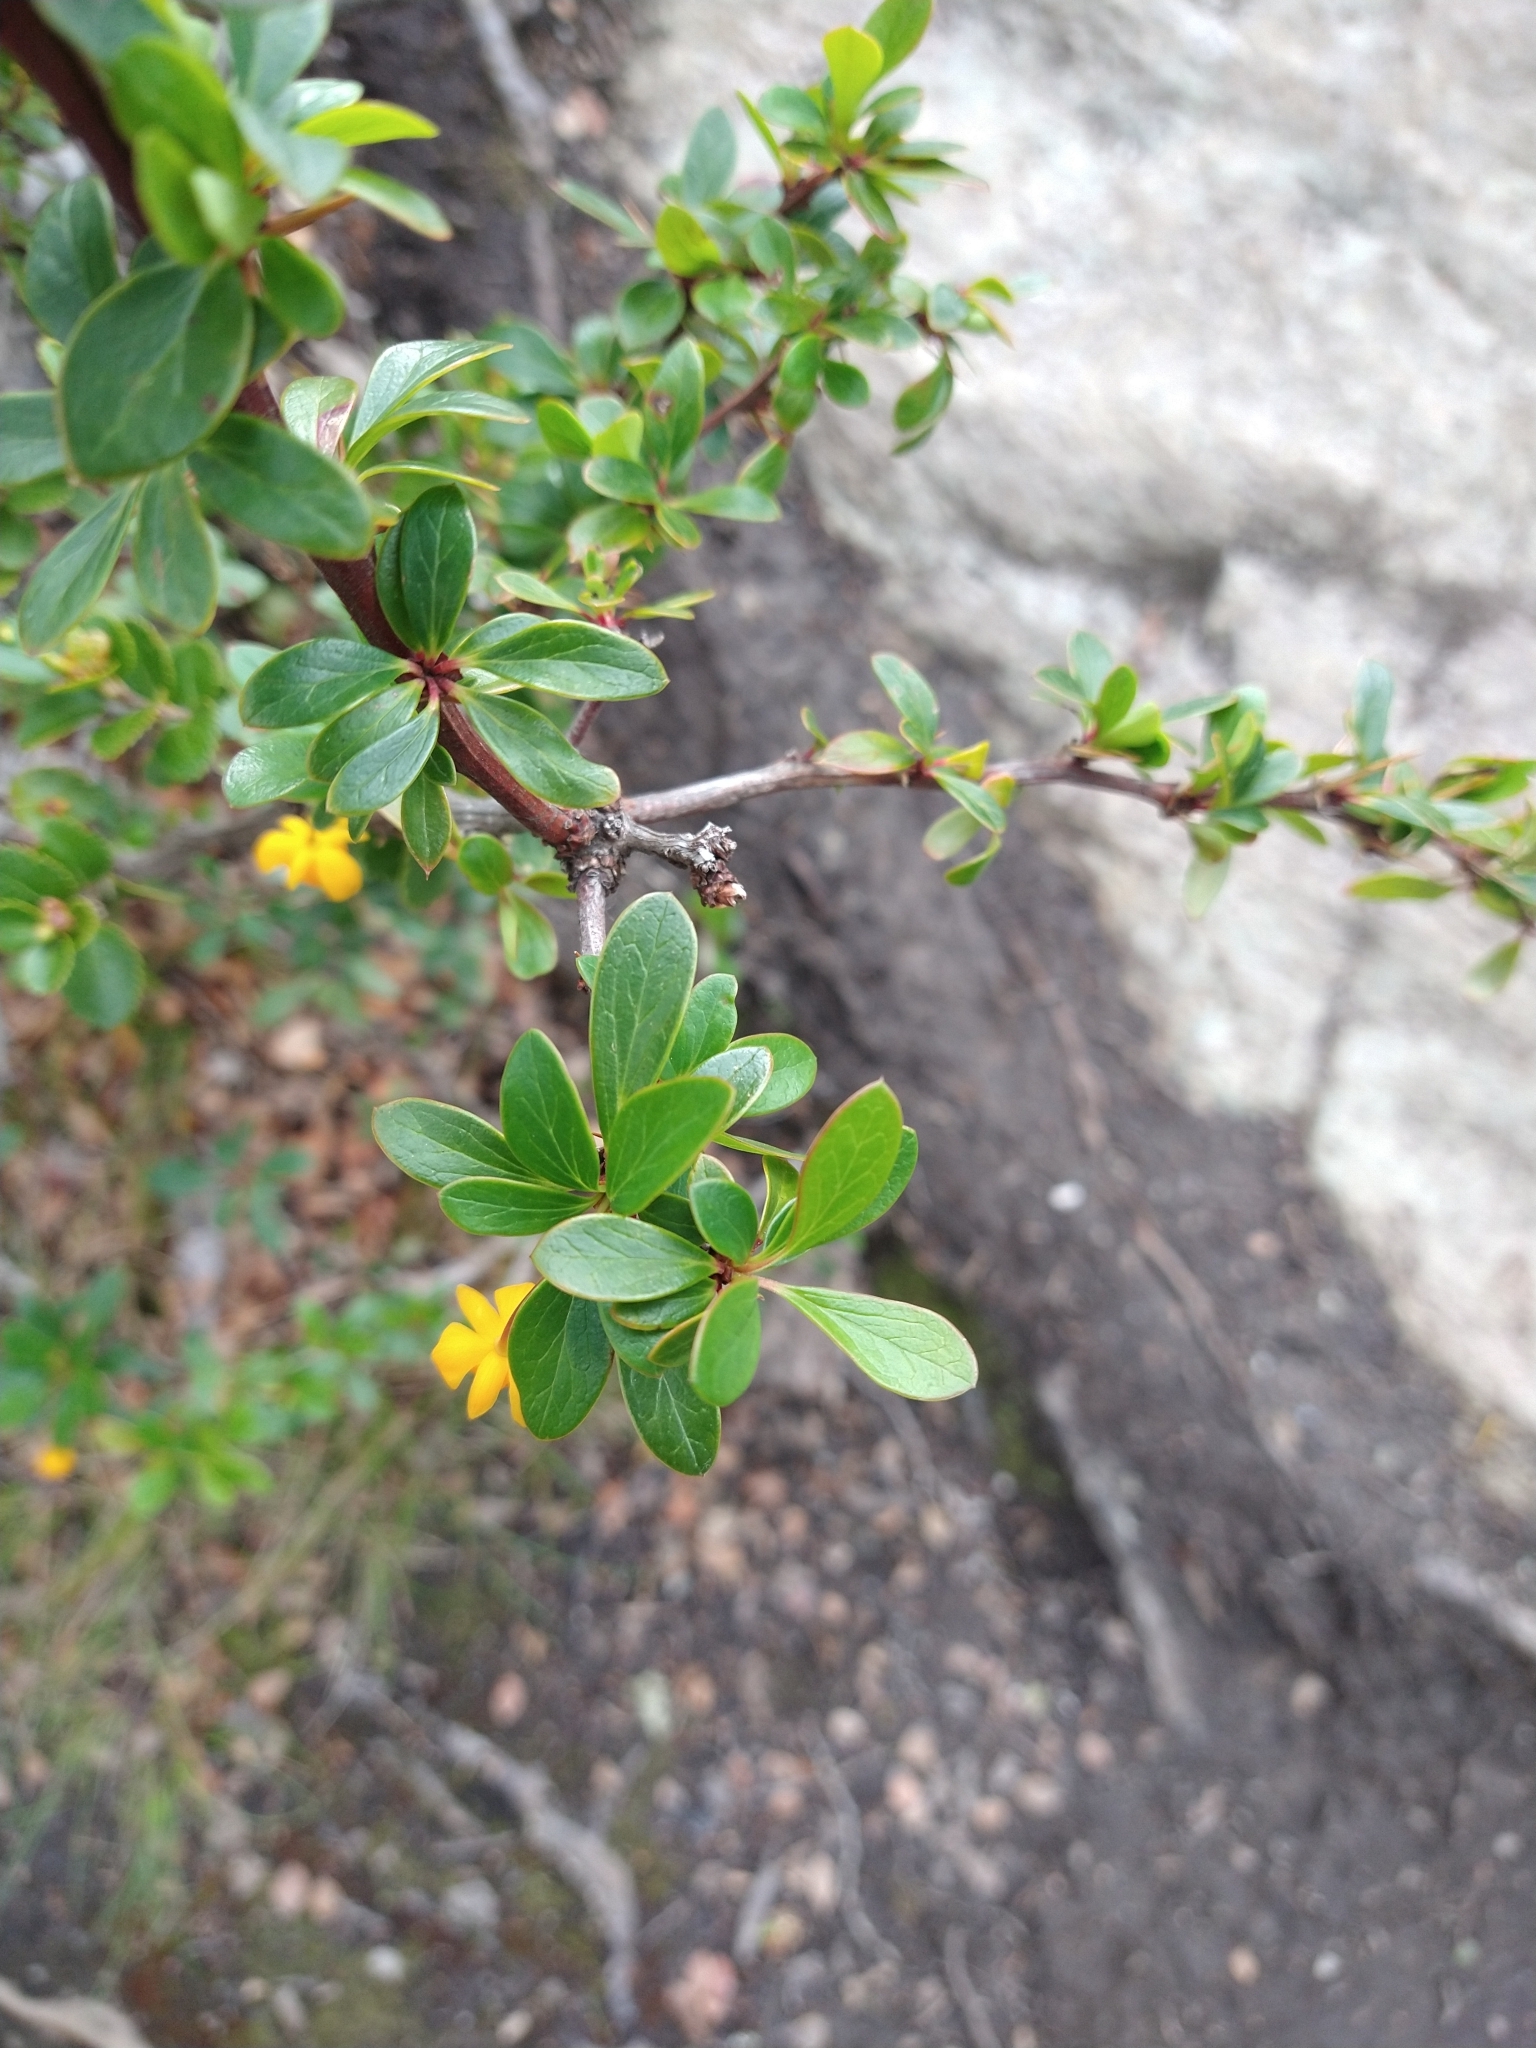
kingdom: Plantae
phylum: Tracheophyta
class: Magnoliopsida
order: Ranunculales
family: Berberidaceae
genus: Berberis
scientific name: Berberis microphylla
